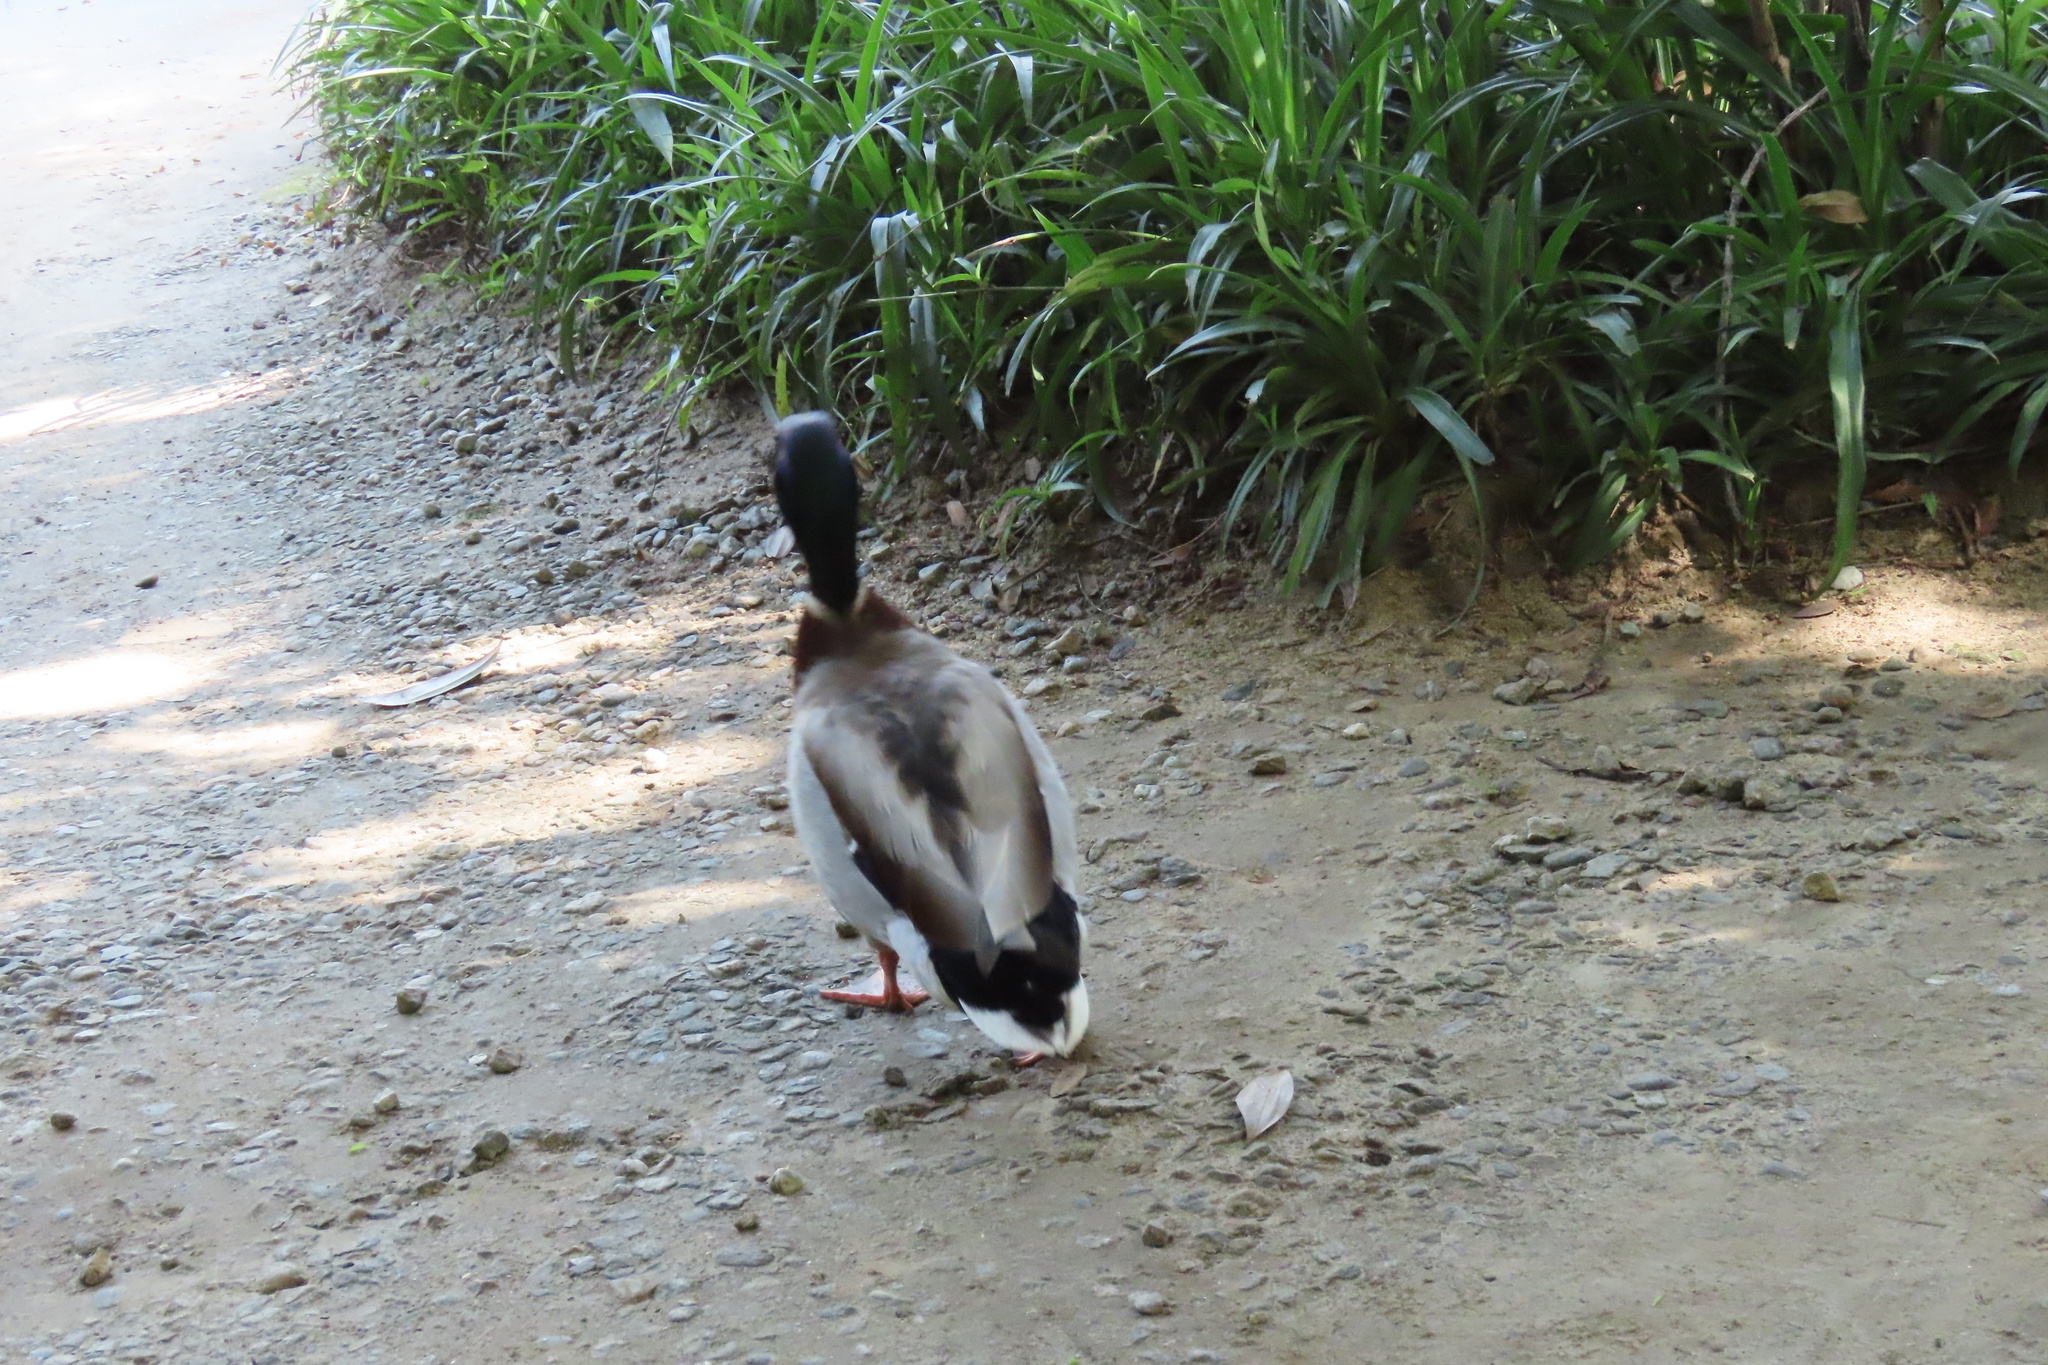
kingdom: Animalia
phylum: Chordata
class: Aves
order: Anseriformes
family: Anatidae
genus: Anas
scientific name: Anas platyrhynchos
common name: Mallard
